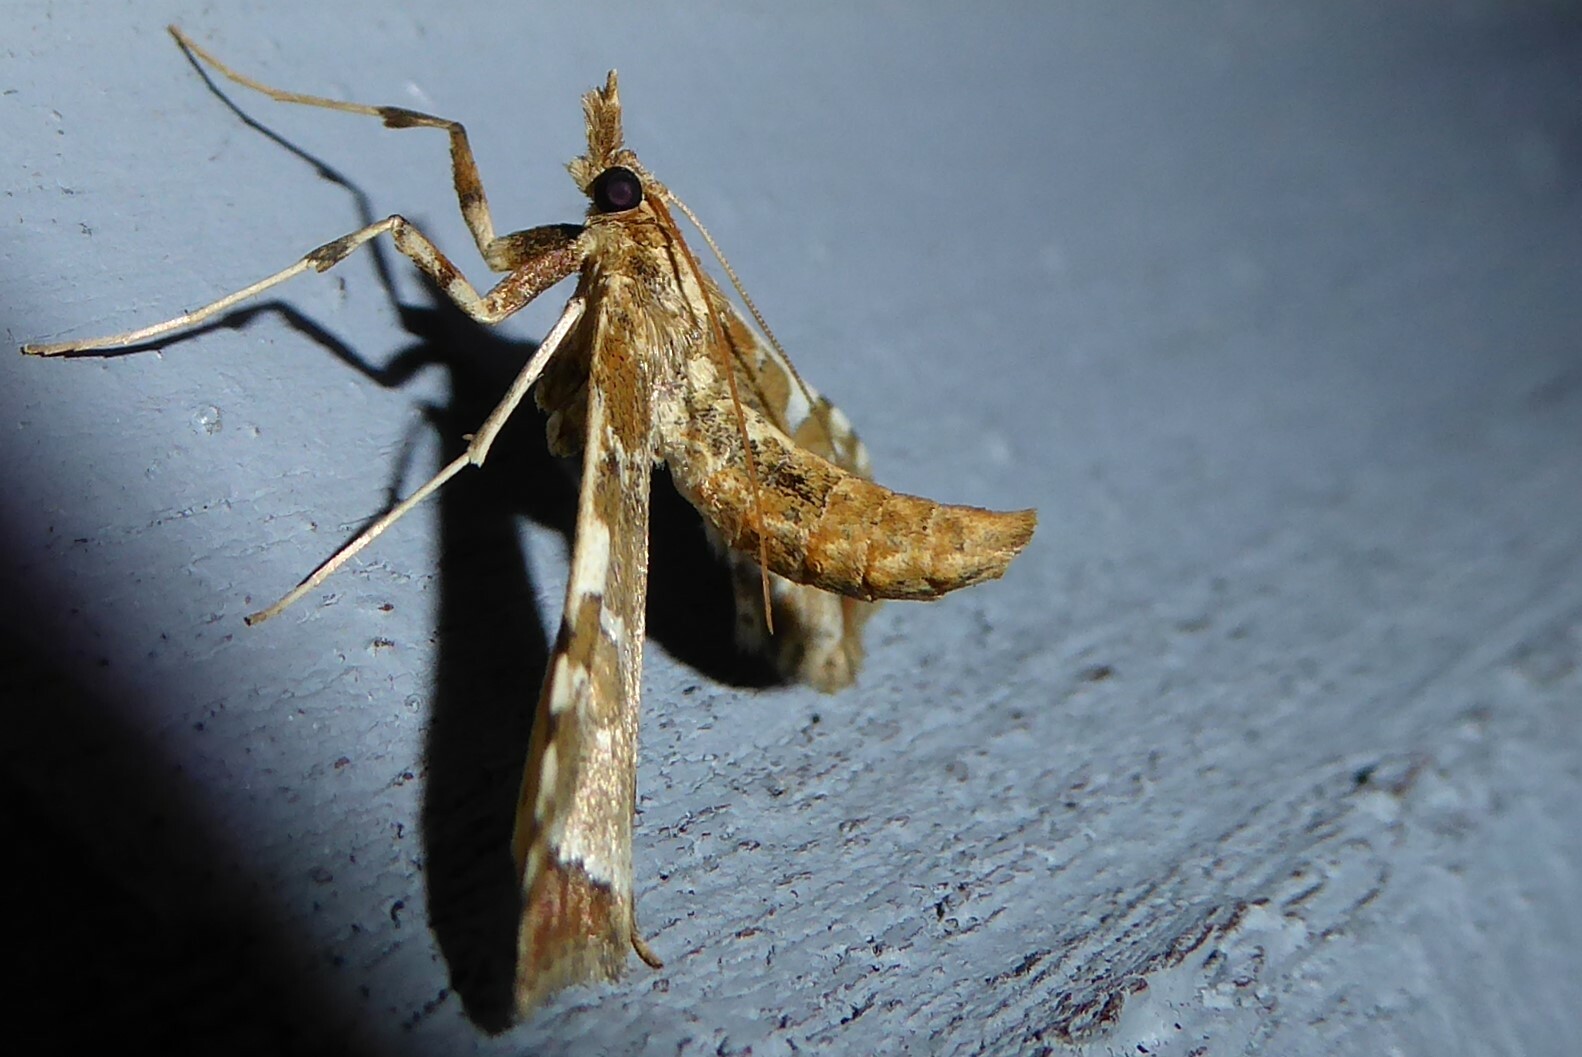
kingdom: Animalia
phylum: Arthropoda
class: Insecta
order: Lepidoptera
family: Crambidae
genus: Sceliodes
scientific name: Sceliodes cordalis
